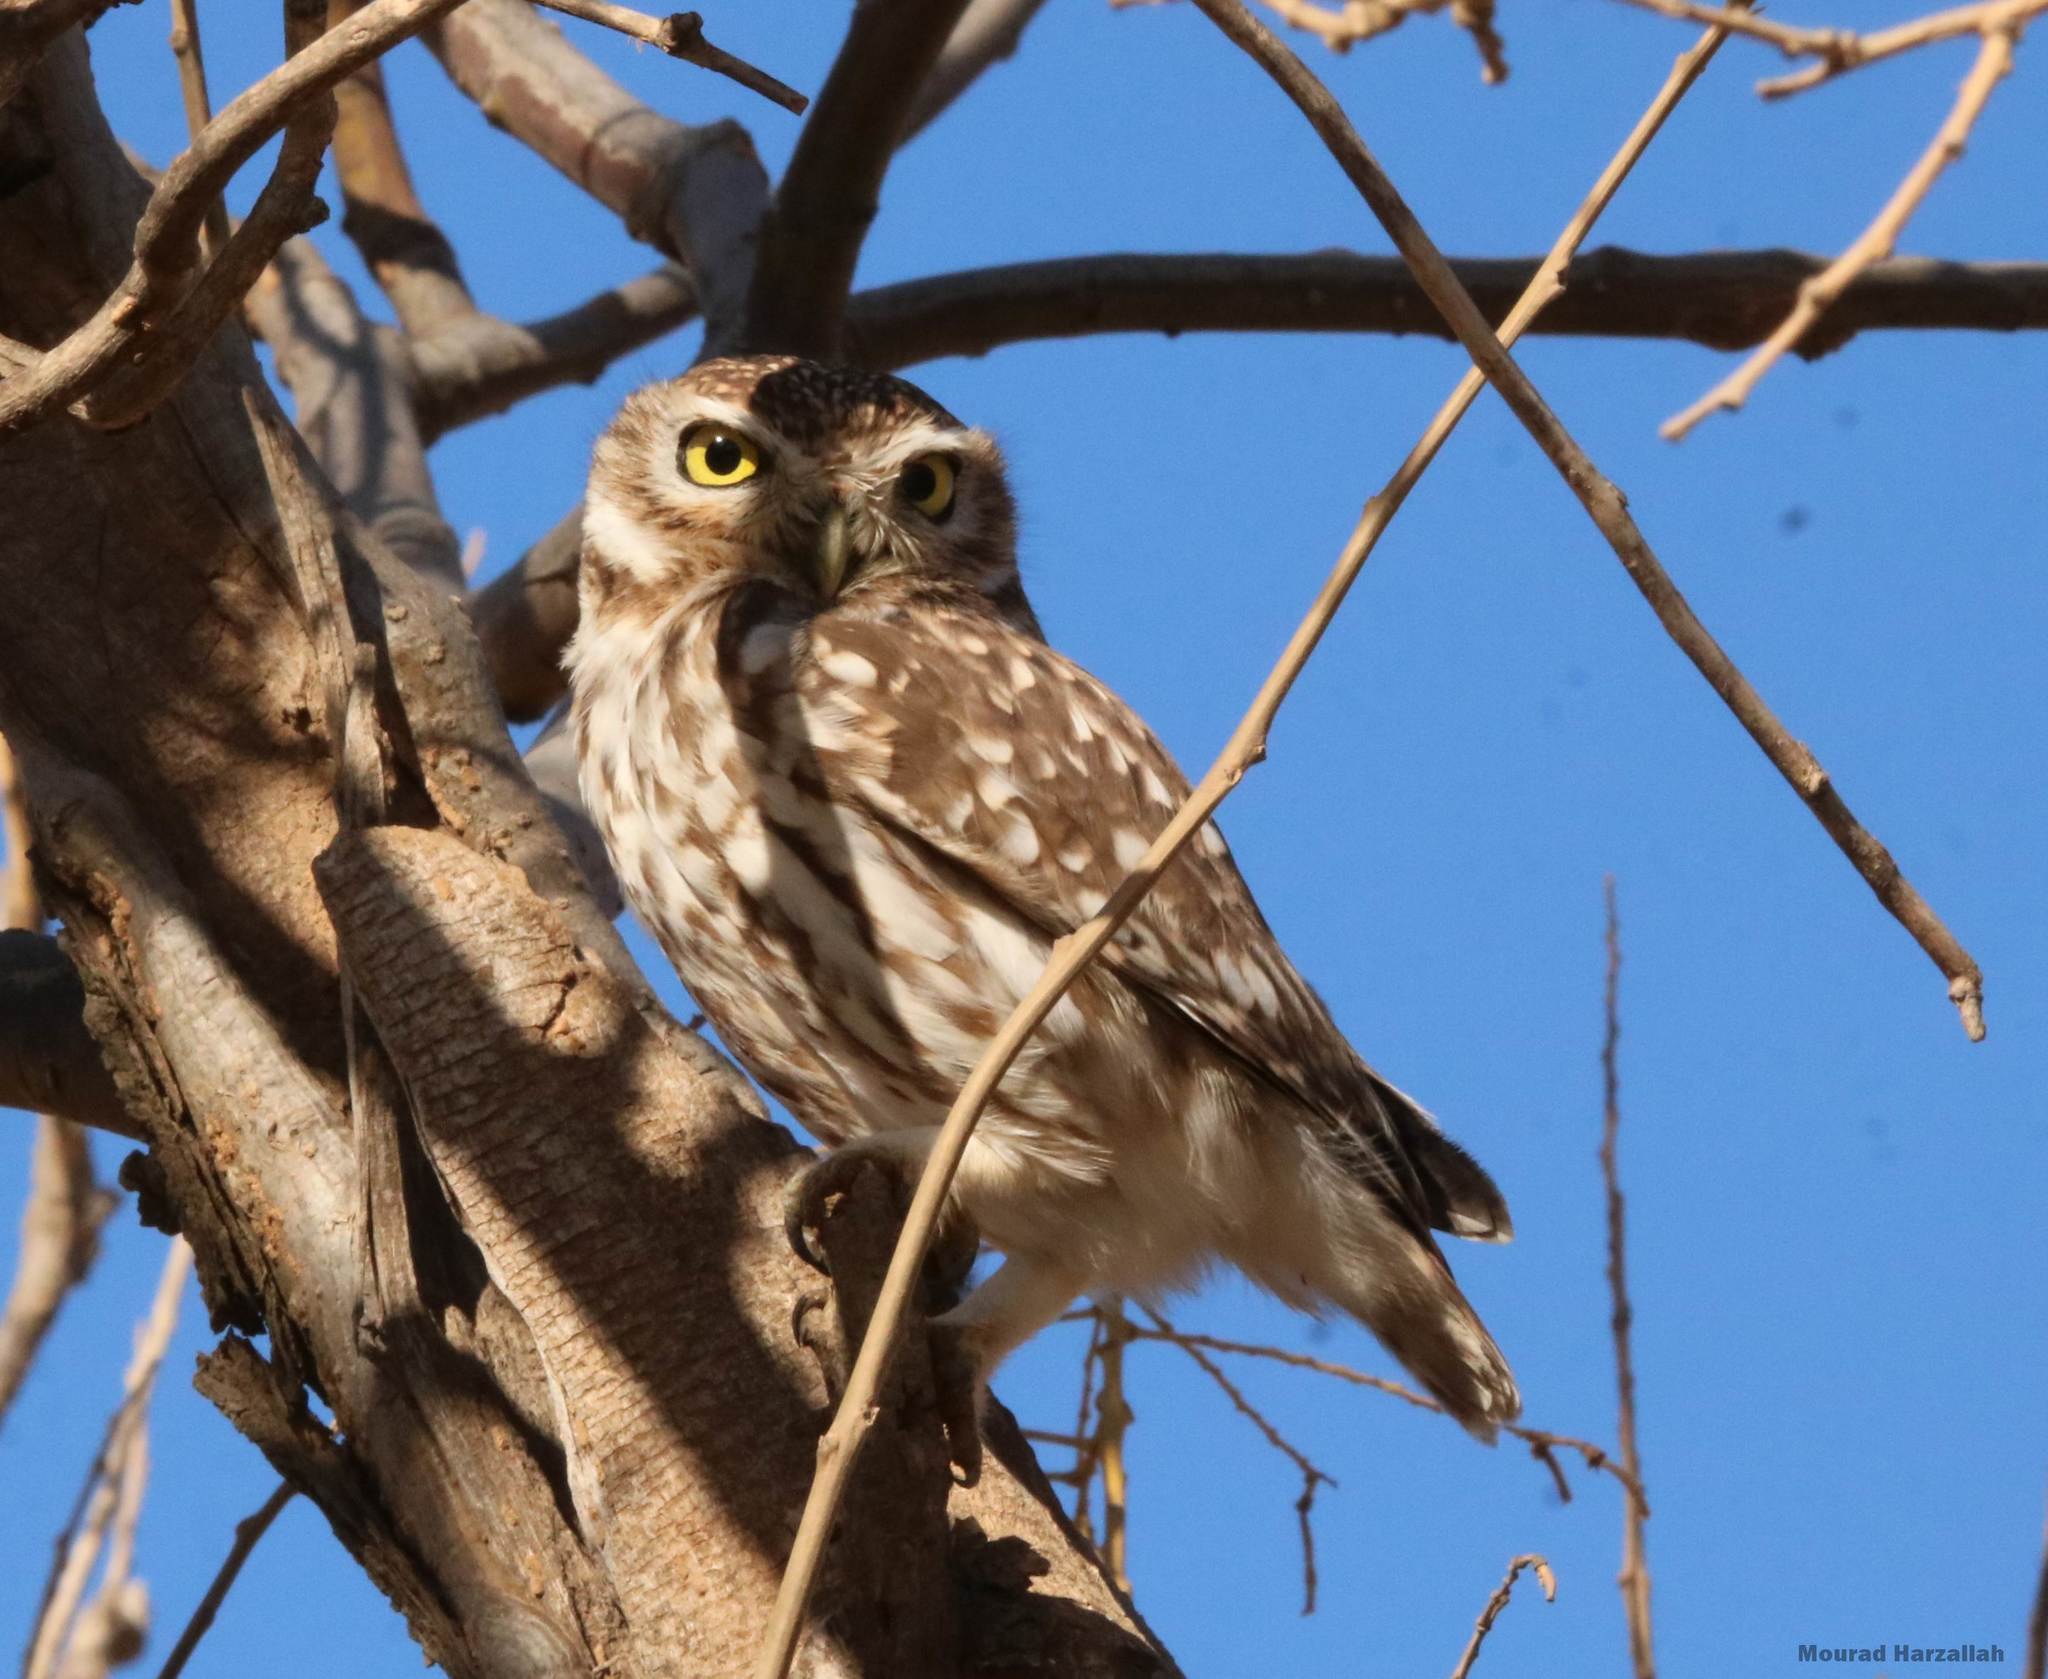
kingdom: Animalia
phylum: Chordata
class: Aves
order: Strigiformes
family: Strigidae
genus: Athene
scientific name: Athene noctua
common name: Little owl
